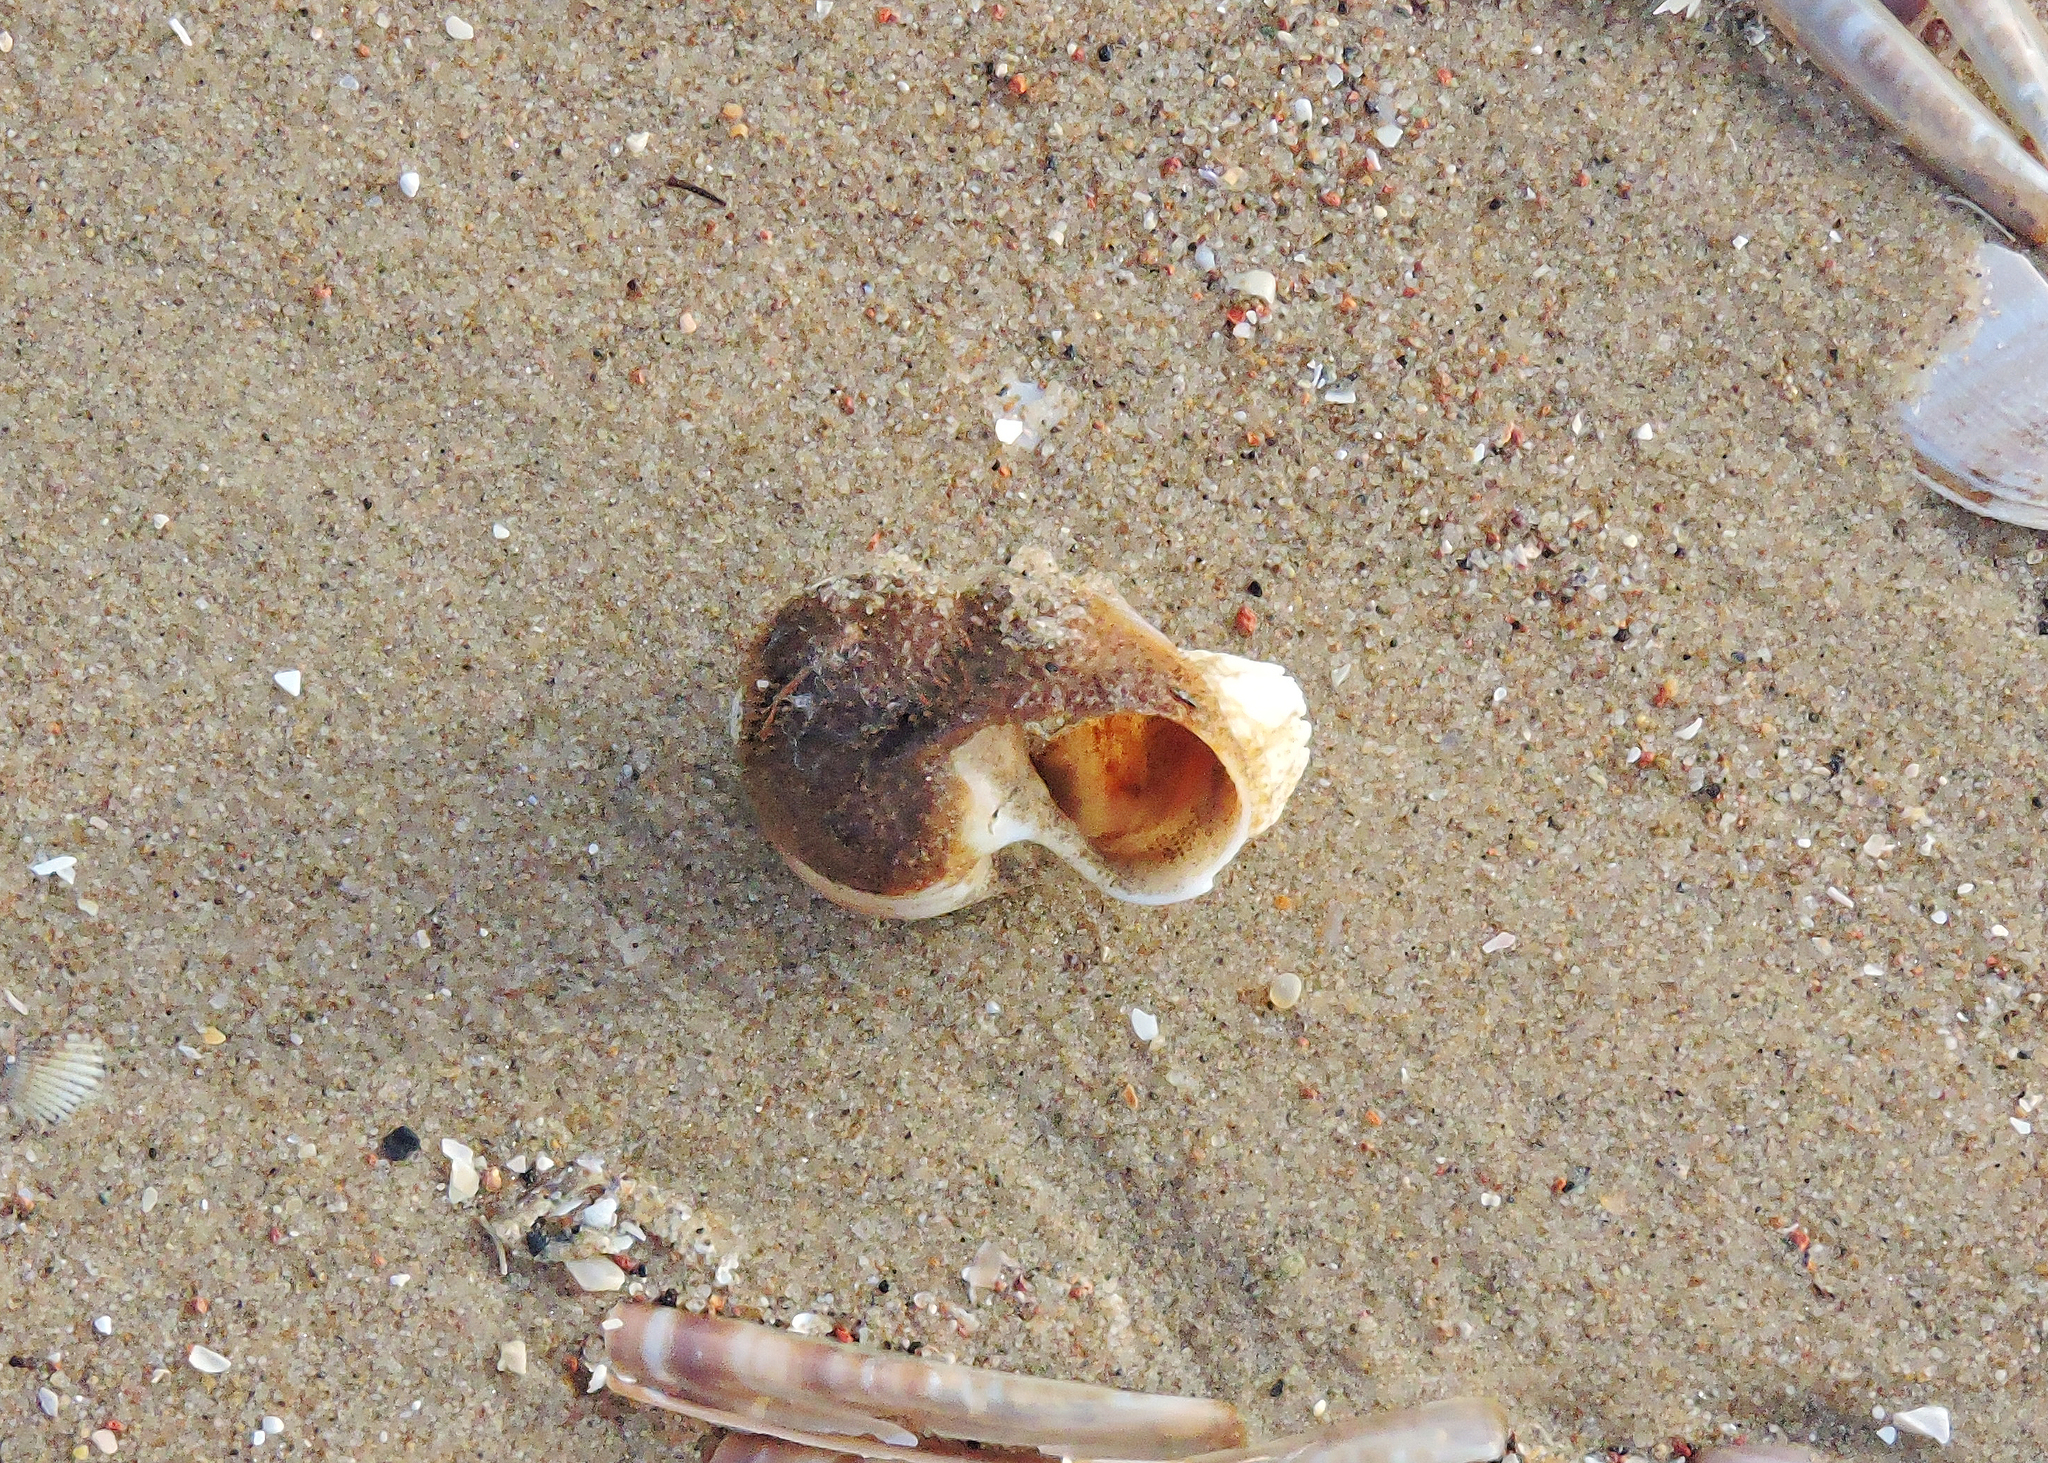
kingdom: Animalia
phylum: Cnidaria
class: Hydrozoa
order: Anthoathecata
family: Hydractiniidae
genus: Hydractinia
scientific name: Hydractinia echinata
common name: Rough hydroid
